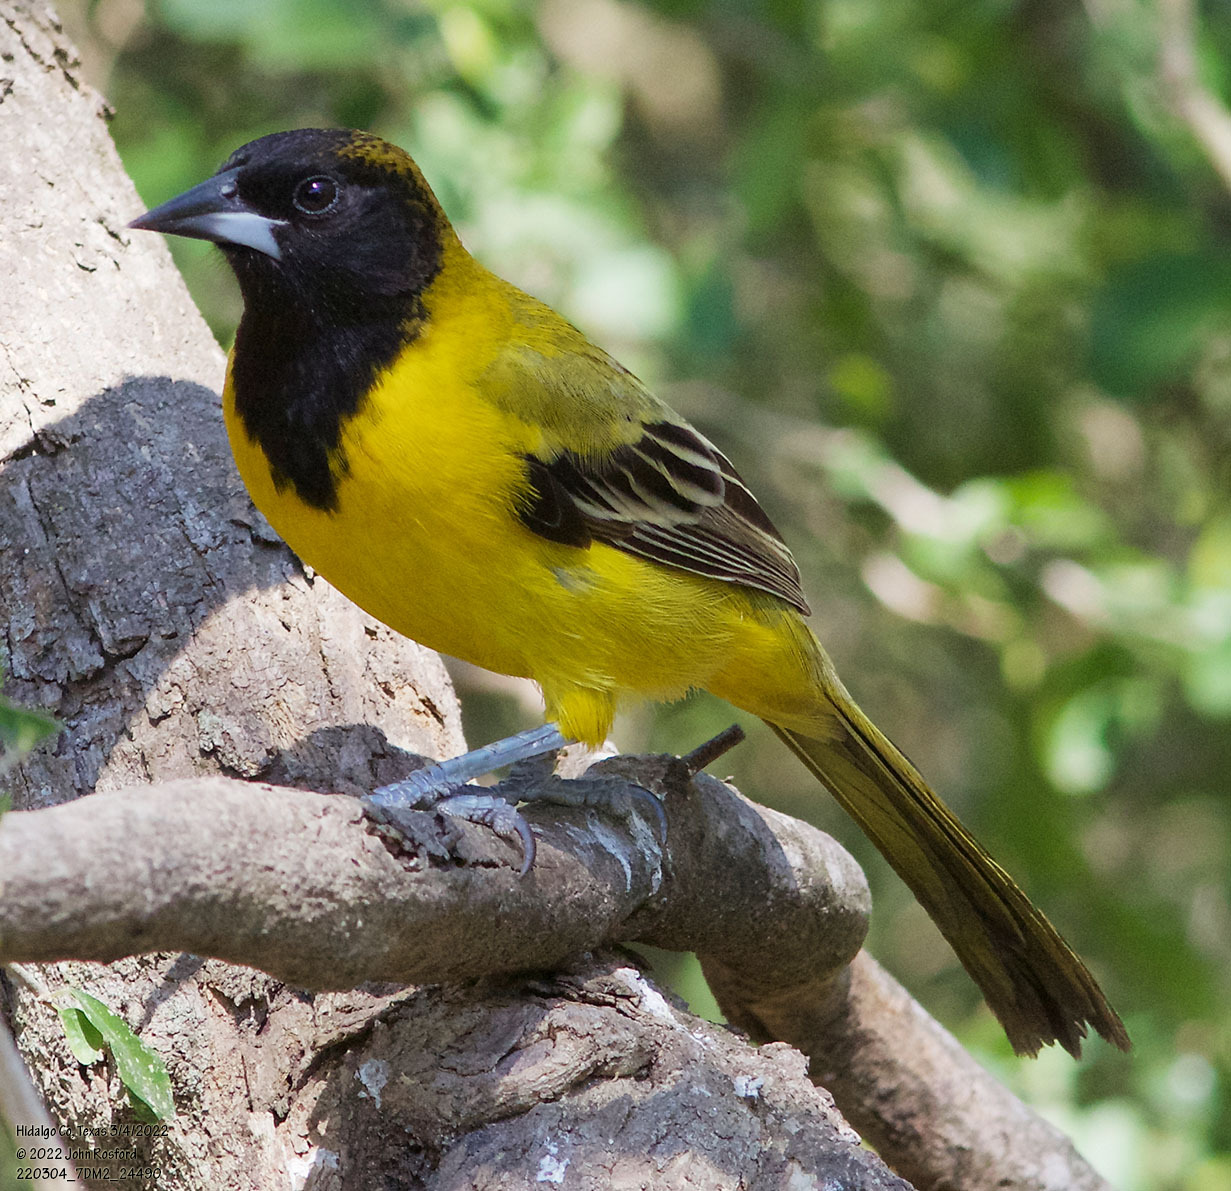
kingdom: Animalia
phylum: Chordata
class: Aves
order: Passeriformes
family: Icteridae
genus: Icterus
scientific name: Icterus graduacauda
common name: Audubon's oriole
